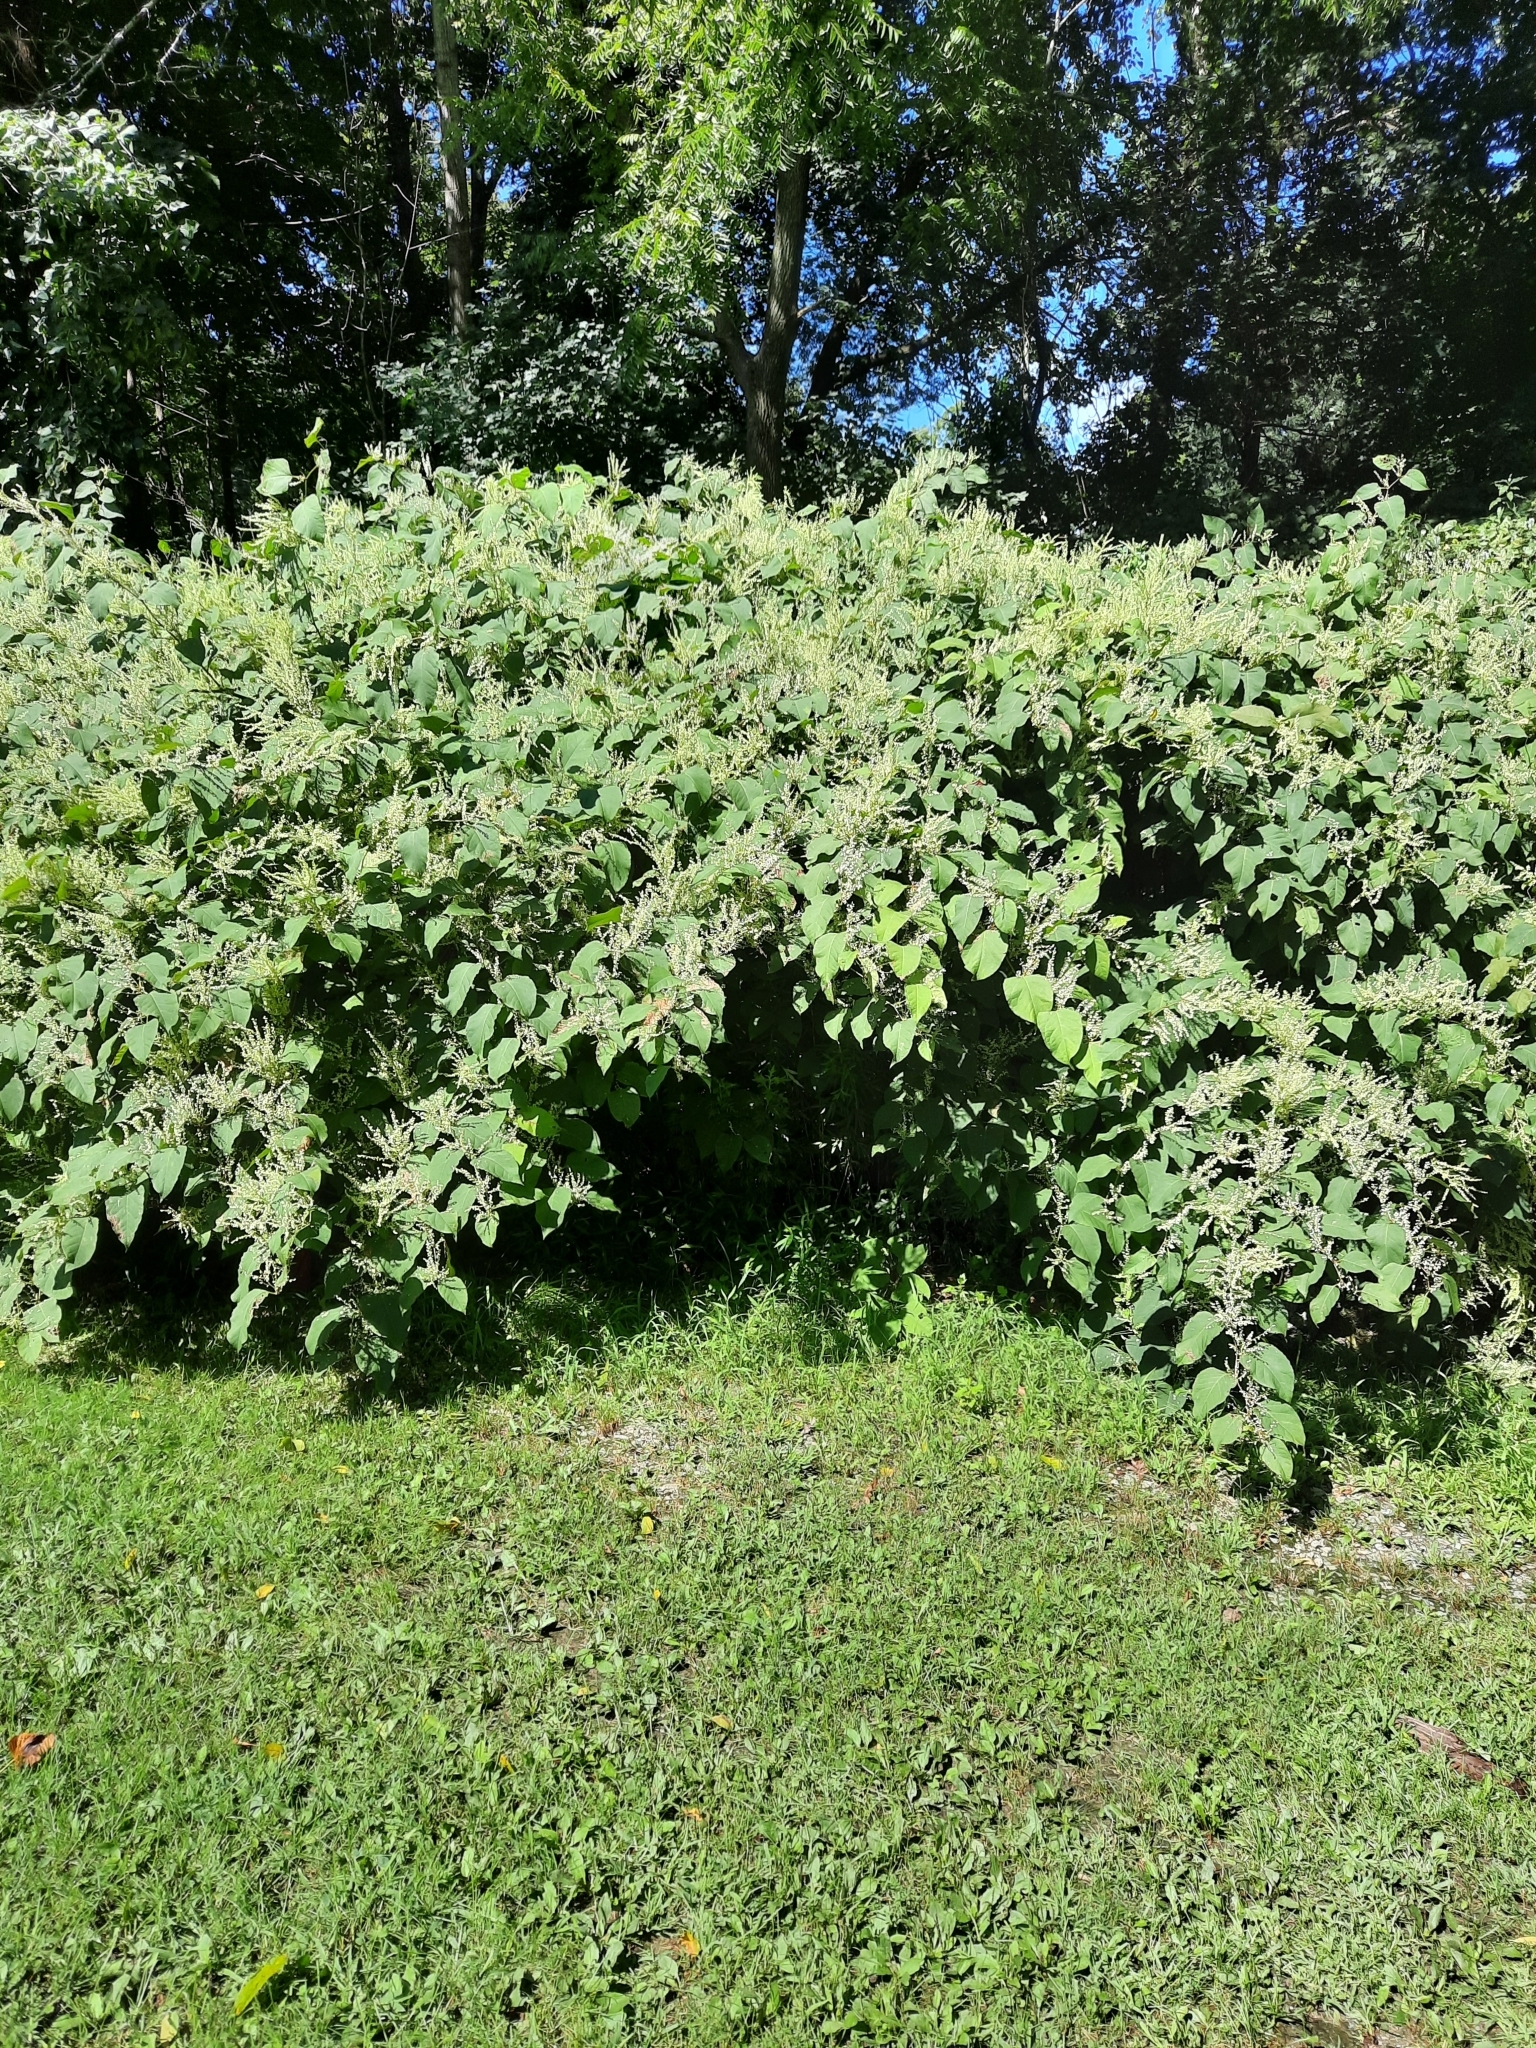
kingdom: Plantae
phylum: Tracheophyta
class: Magnoliopsida
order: Caryophyllales
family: Polygonaceae
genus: Reynoutria
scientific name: Reynoutria japonica
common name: Japanese knotweed
